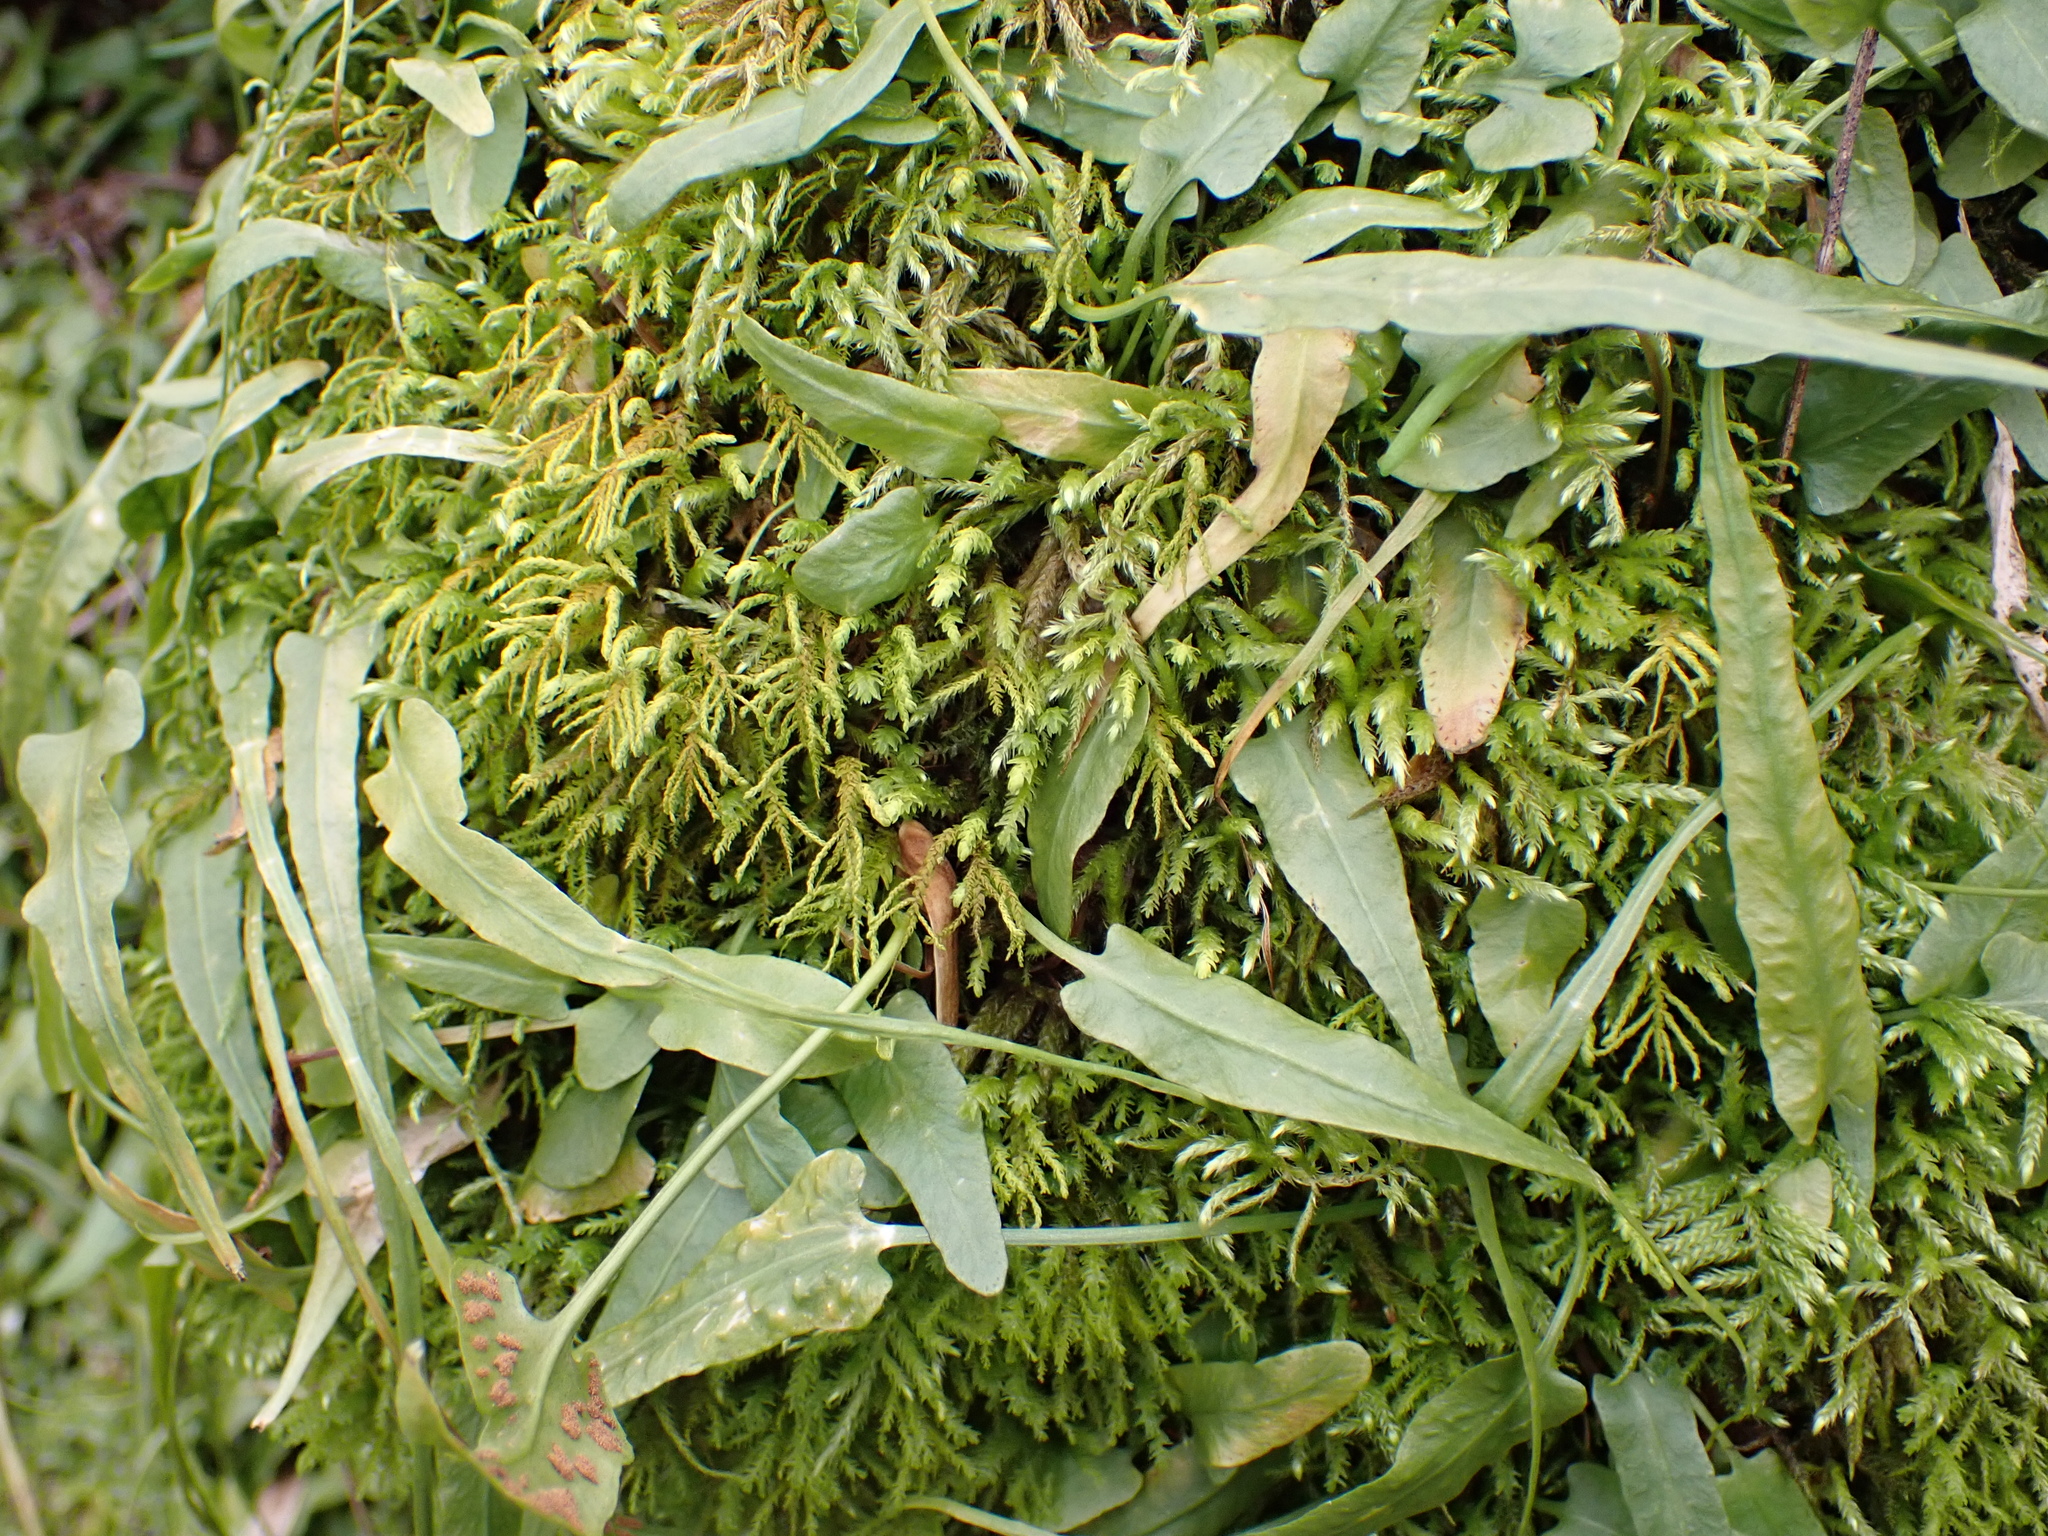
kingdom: Plantae
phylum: Tracheophyta
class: Polypodiopsida
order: Polypodiales
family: Aspleniaceae
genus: Asplenium
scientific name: Asplenium rhizophyllum
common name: Walking fern
